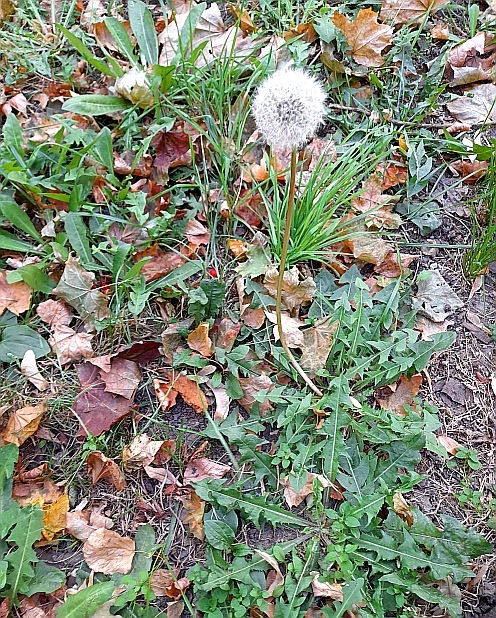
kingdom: Plantae
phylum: Tracheophyta
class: Magnoliopsida
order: Asterales
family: Asteraceae
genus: Taraxacum
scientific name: Taraxacum officinale
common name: Common dandelion
